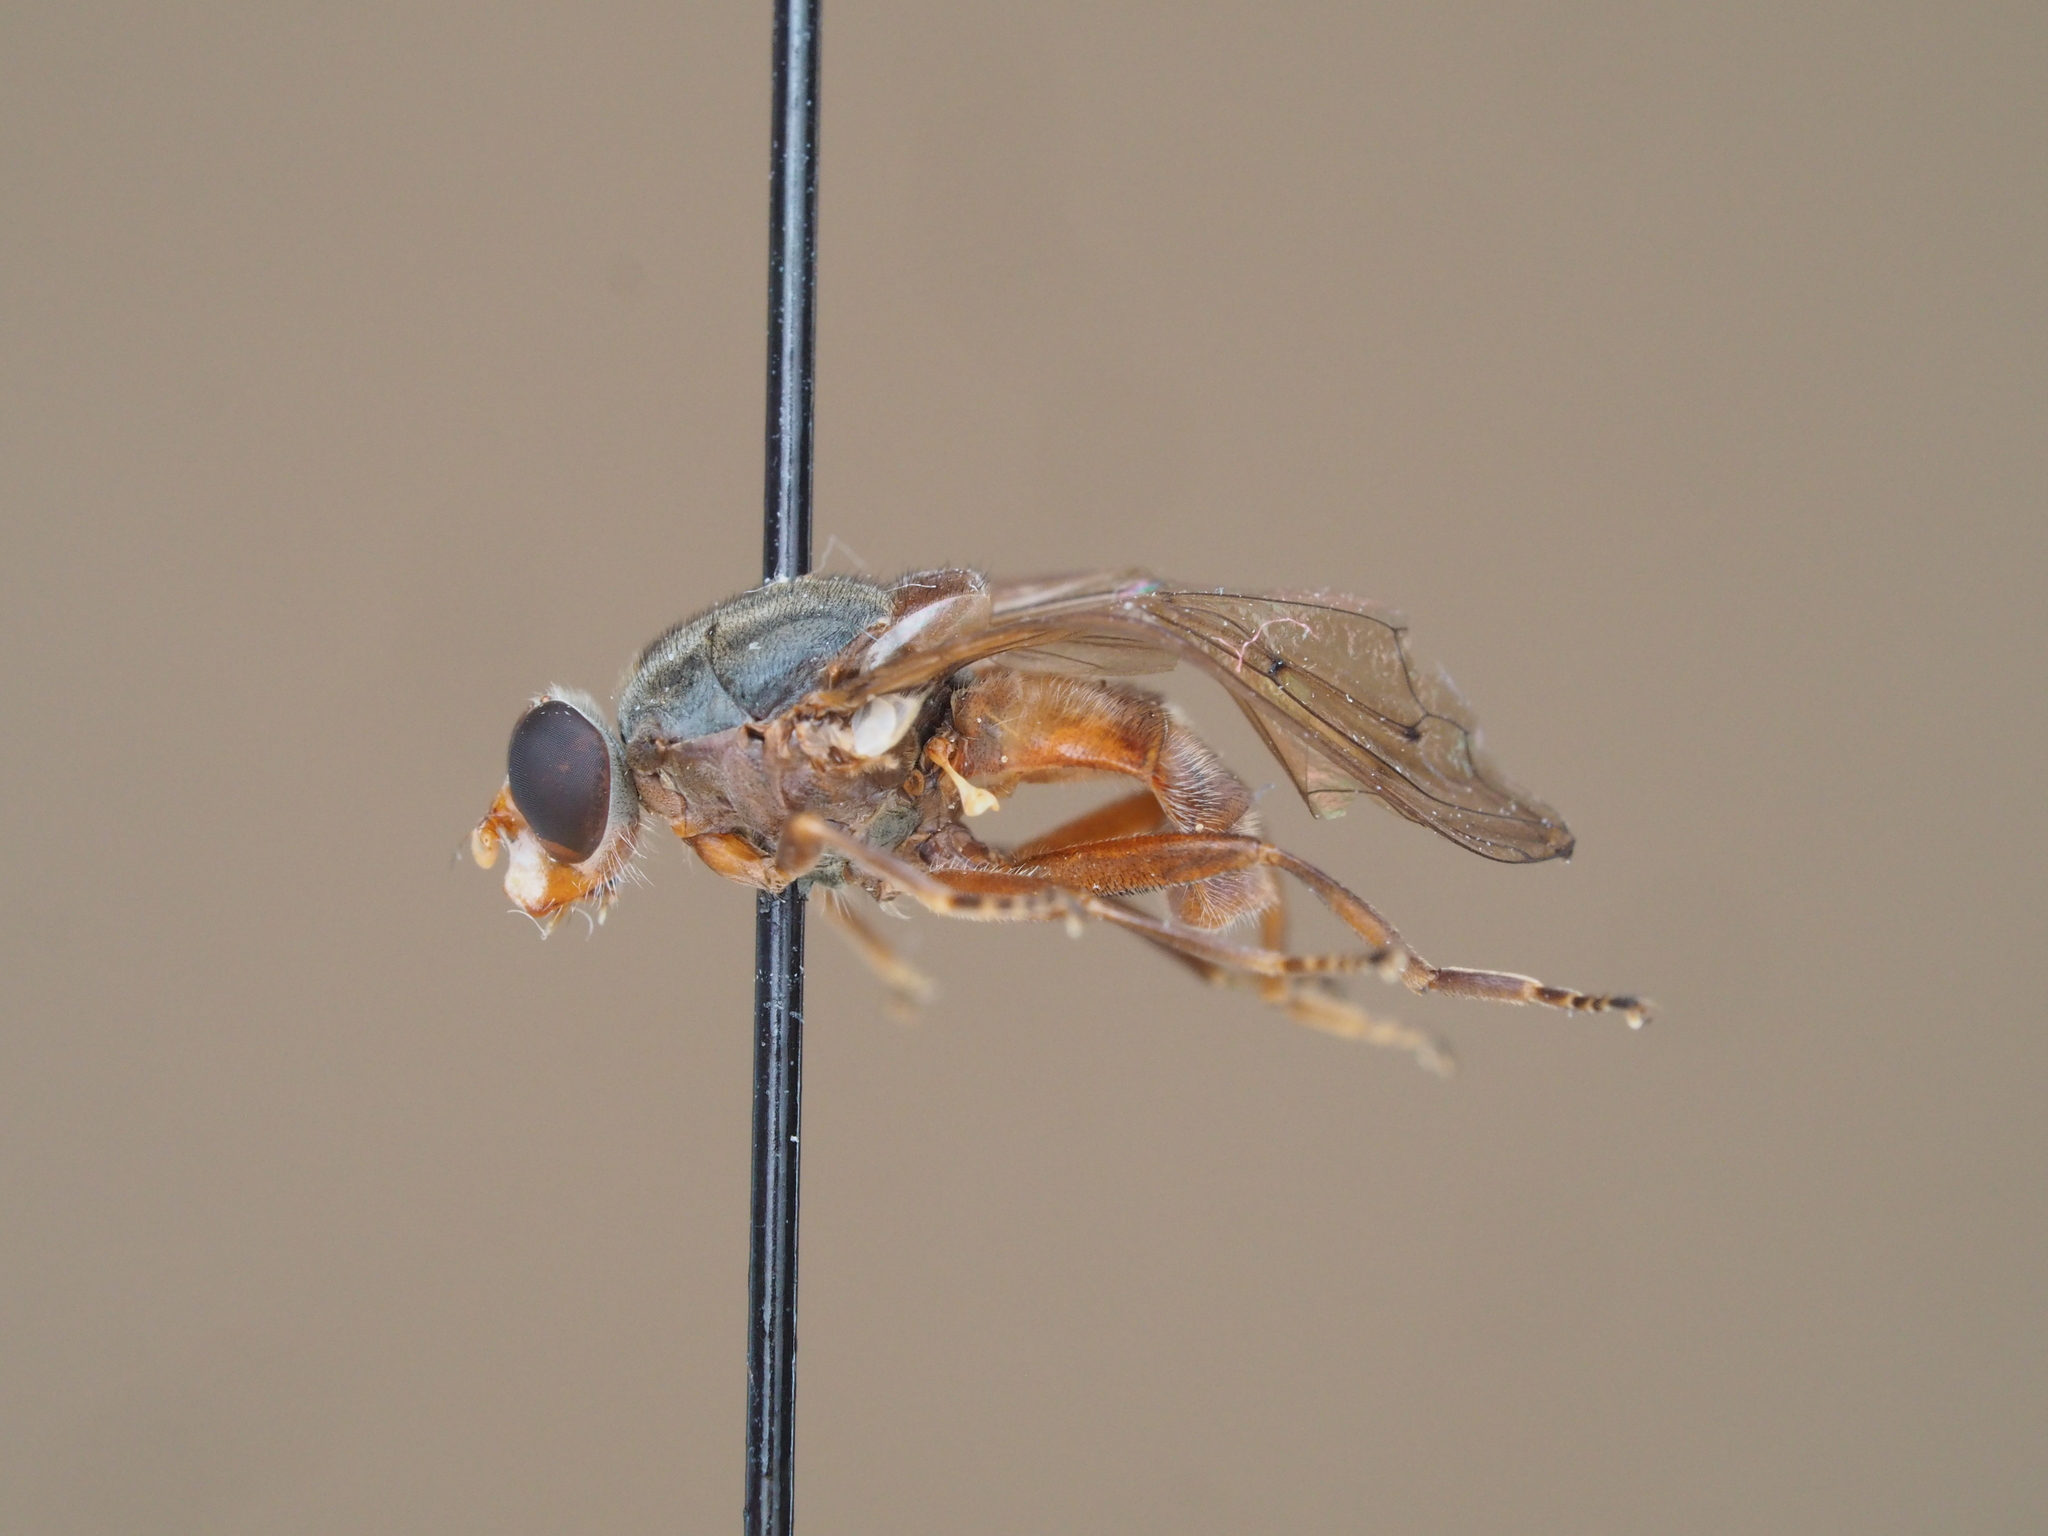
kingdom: Animalia
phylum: Arthropoda
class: Insecta
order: Diptera
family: Syrphidae
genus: Brachyopa
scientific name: Brachyopa maculipennis
